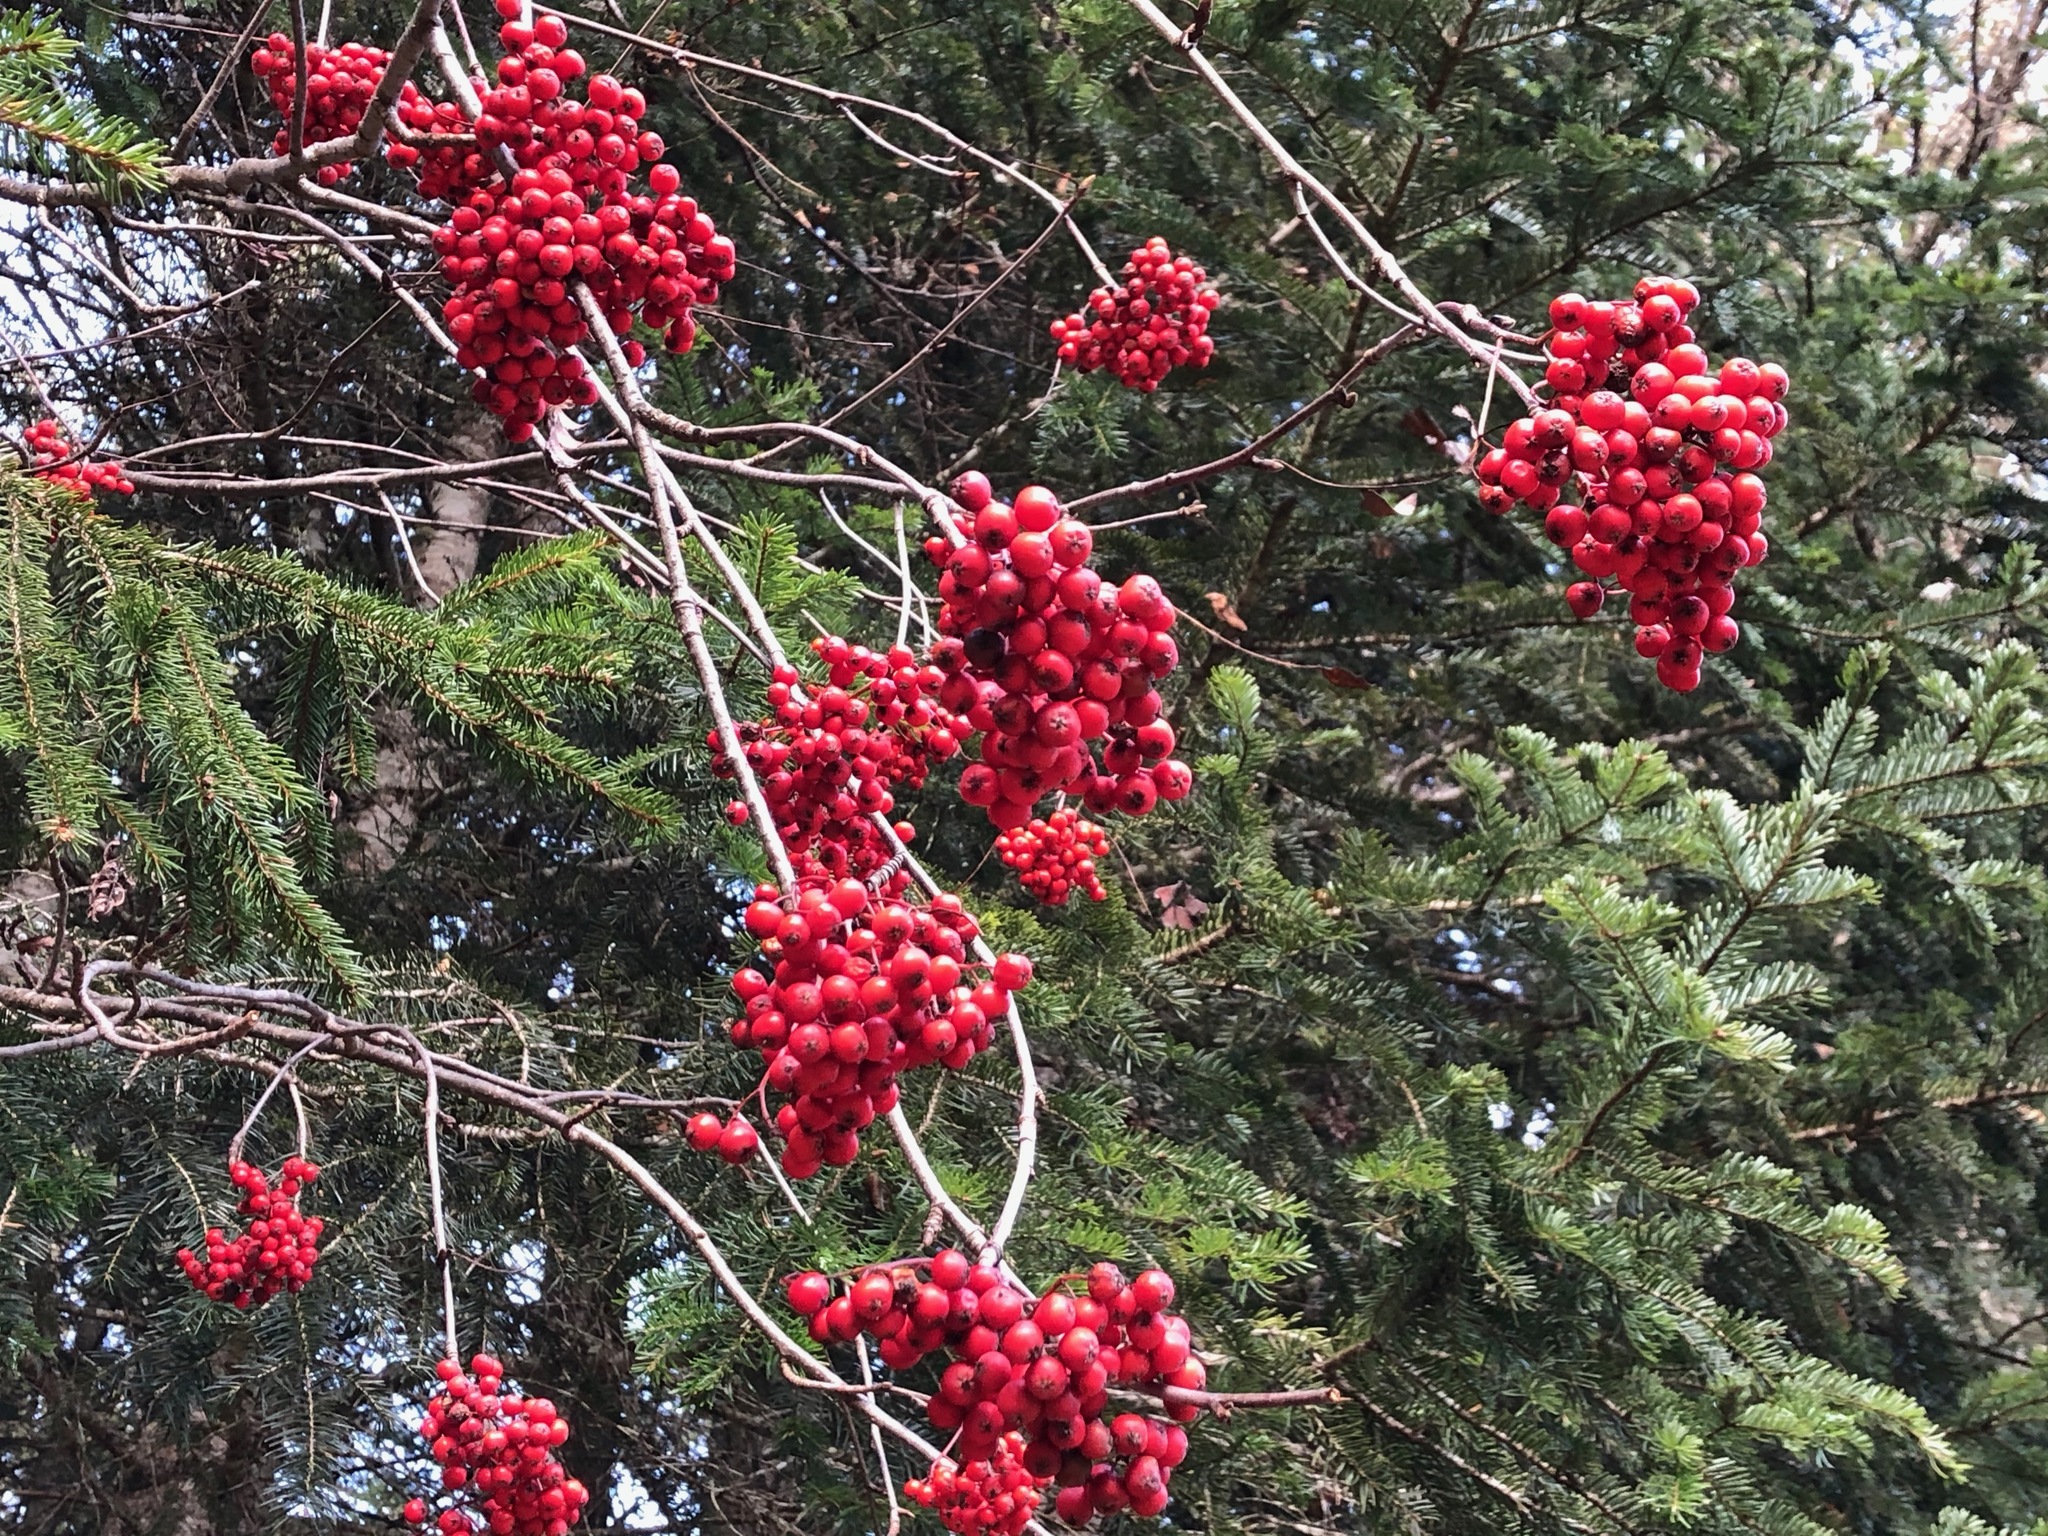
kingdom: Plantae
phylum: Tracheophyta
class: Magnoliopsida
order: Rosales
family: Rosaceae
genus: Sorbus
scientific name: Sorbus aucuparia
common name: Rowan
